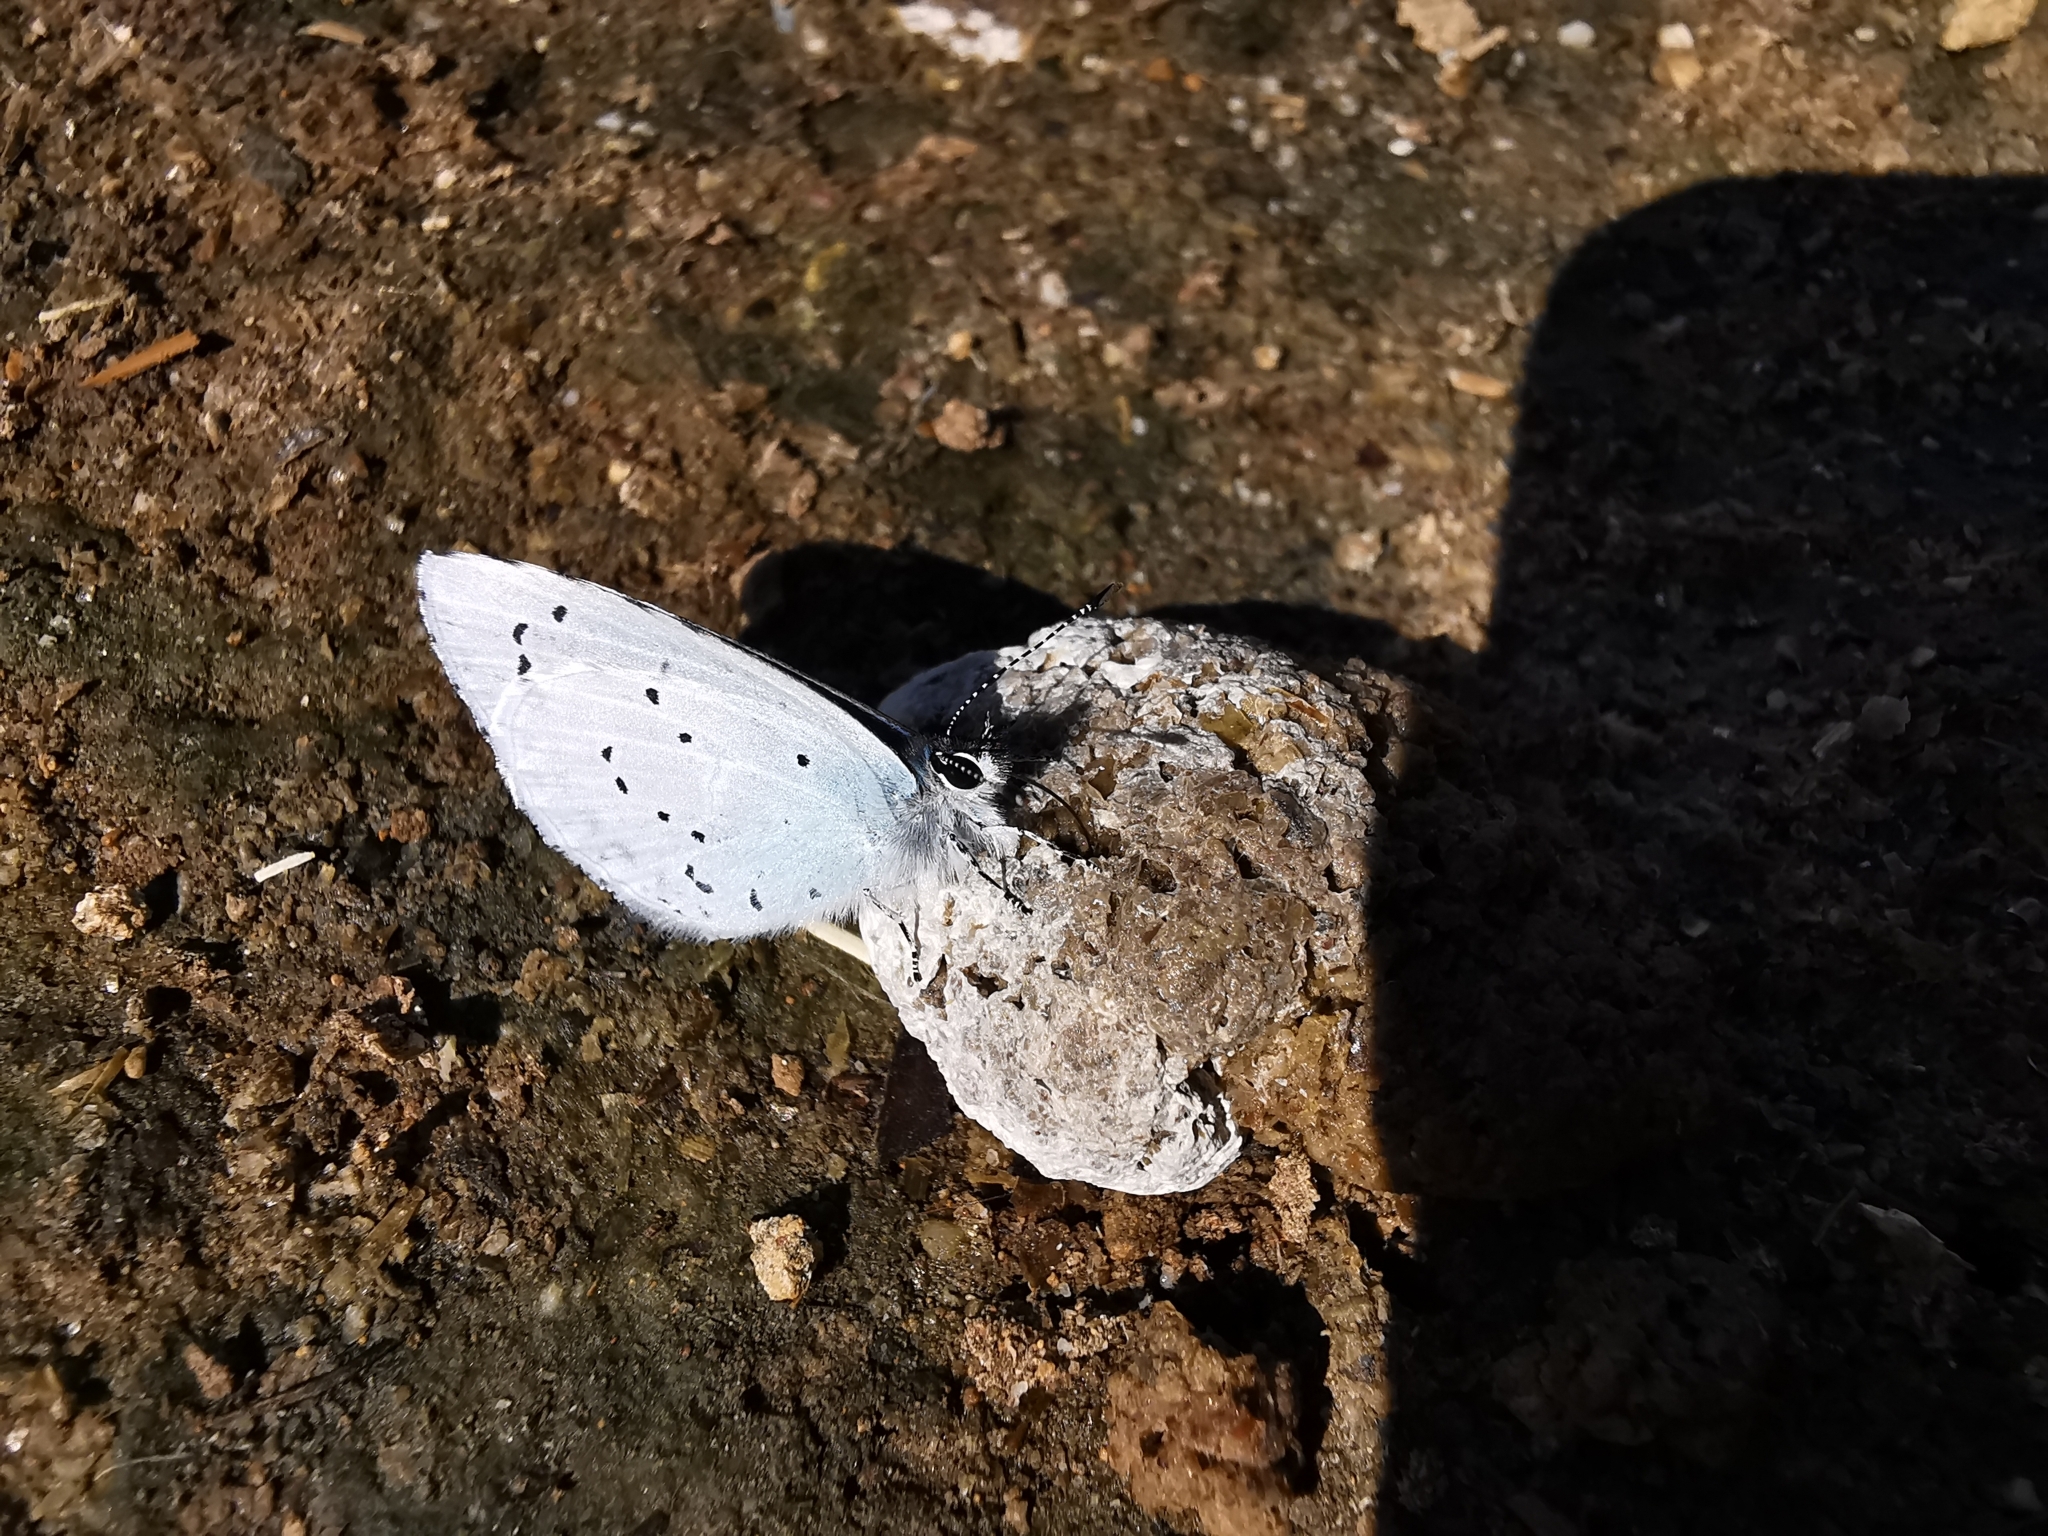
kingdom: Animalia
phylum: Arthropoda
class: Insecta
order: Lepidoptera
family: Lycaenidae
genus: Celastrina
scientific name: Celastrina argiolus
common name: Holly blue
